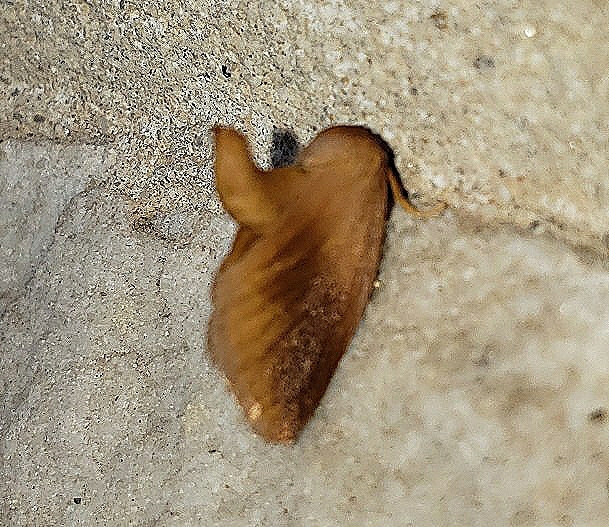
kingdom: Animalia
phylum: Arthropoda
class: Insecta
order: Lepidoptera
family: Limacodidae
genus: Tortricidia
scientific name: Tortricidia testacea
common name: Early button slug moth
